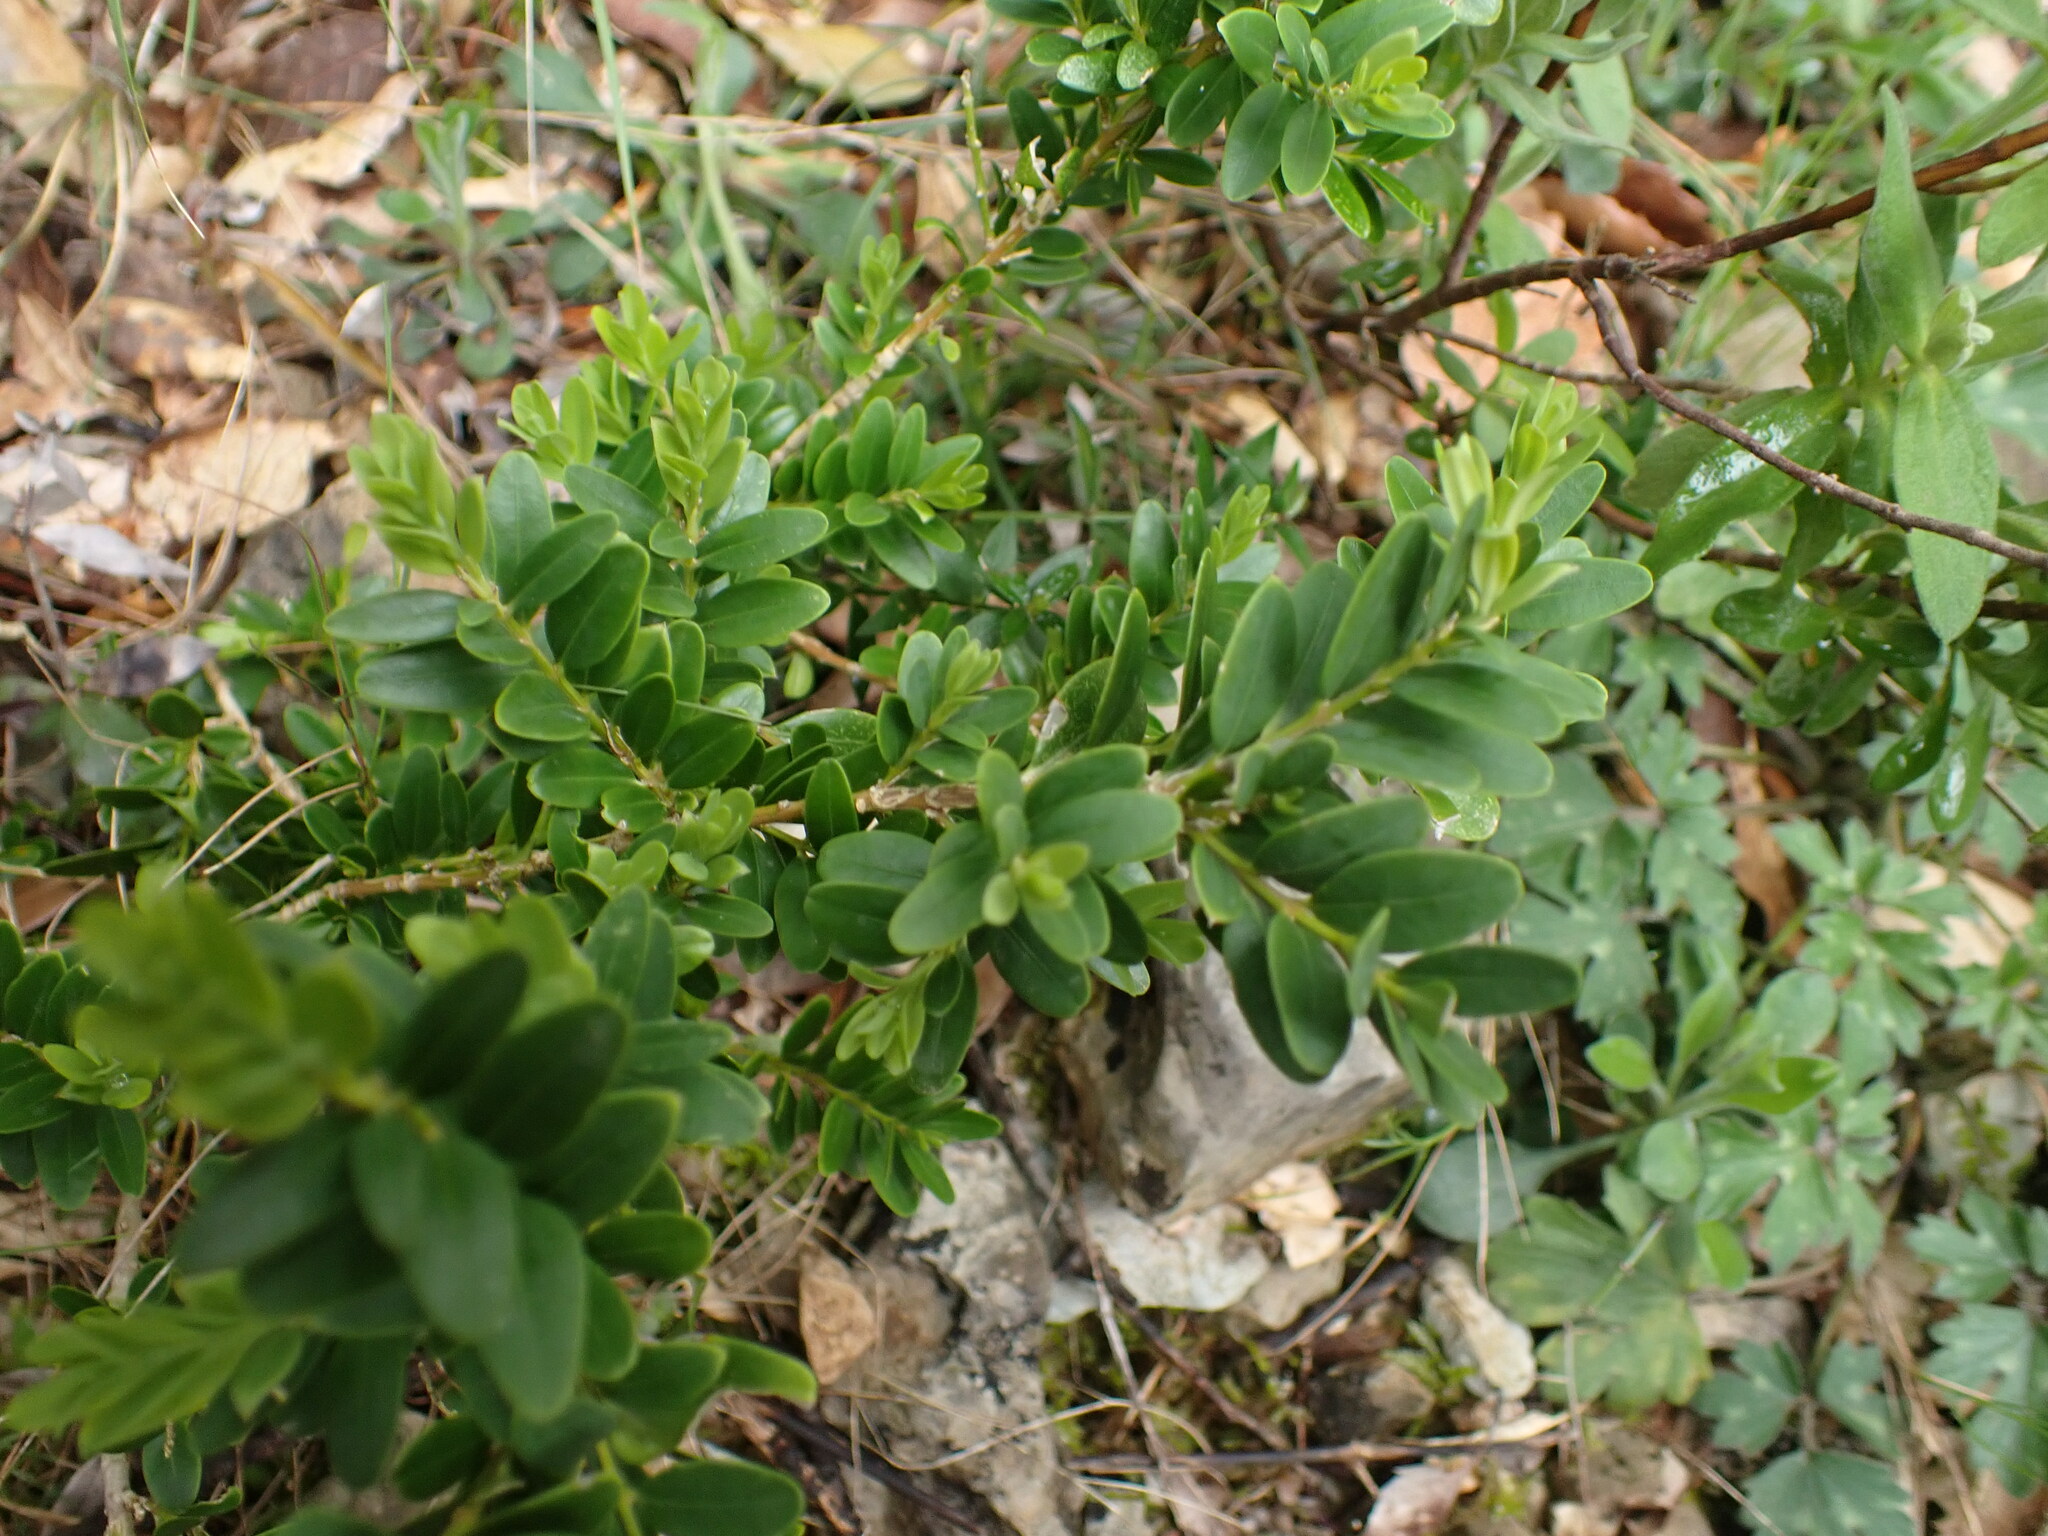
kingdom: Plantae
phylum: Tracheophyta
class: Magnoliopsida
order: Buxales
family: Buxaceae
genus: Buxus
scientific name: Buxus sempervirens
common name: Box
